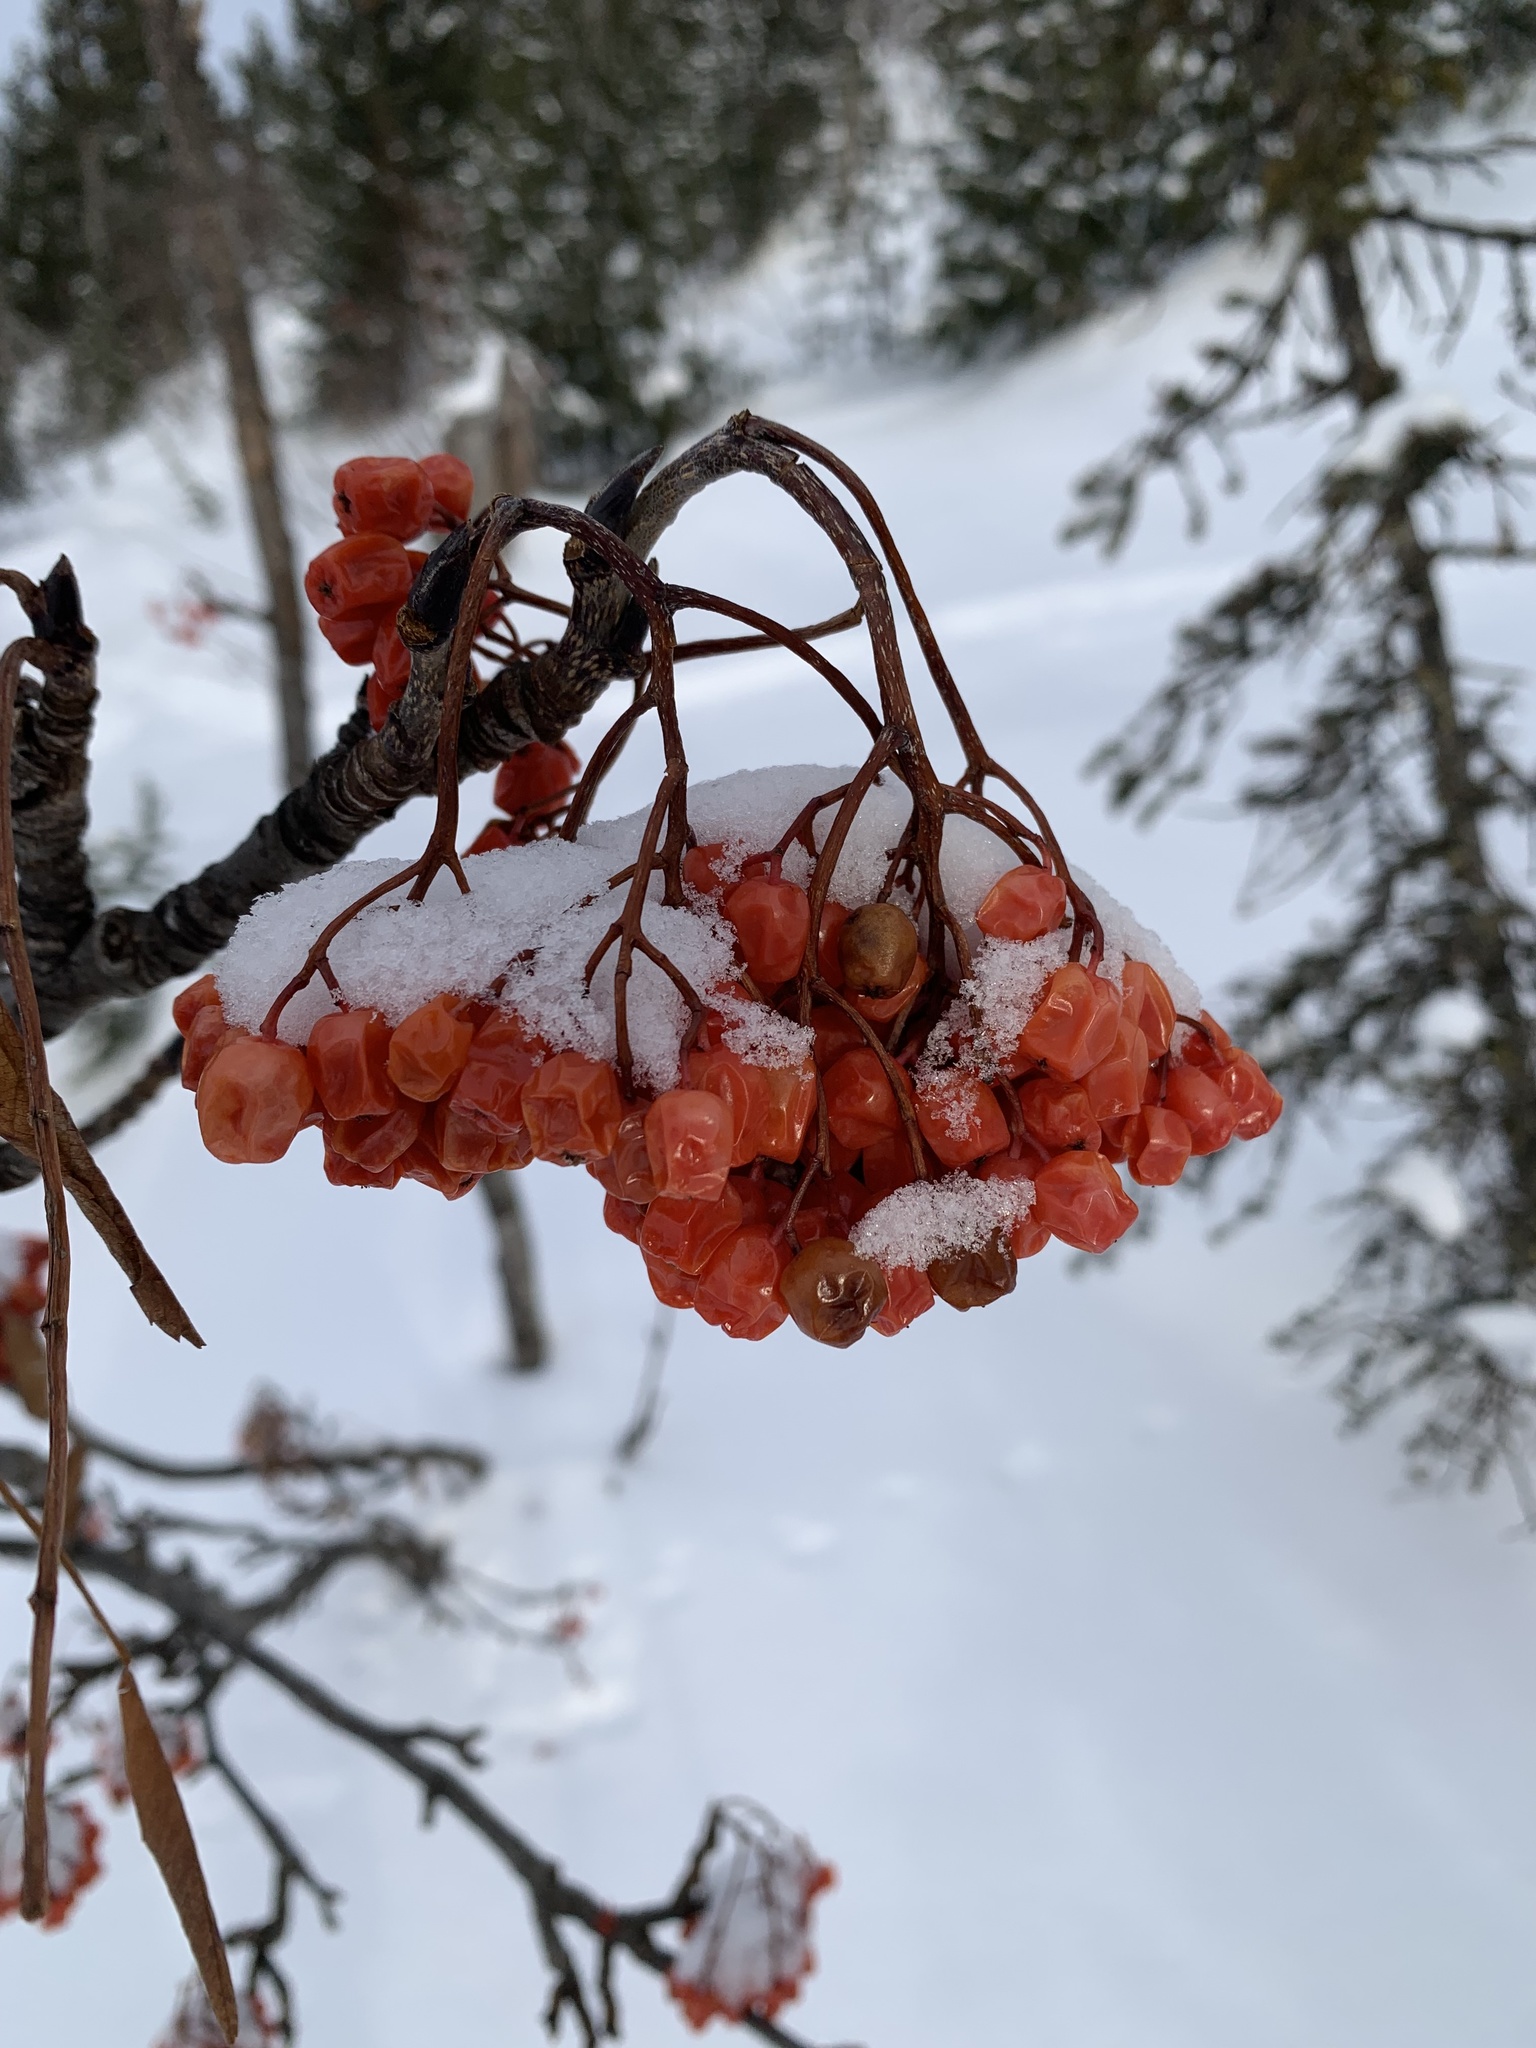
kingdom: Plantae
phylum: Tracheophyta
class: Magnoliopsida
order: Rosales
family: Rosaceae
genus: Sorbus
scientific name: Sorbus aucuparia
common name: Rowan
